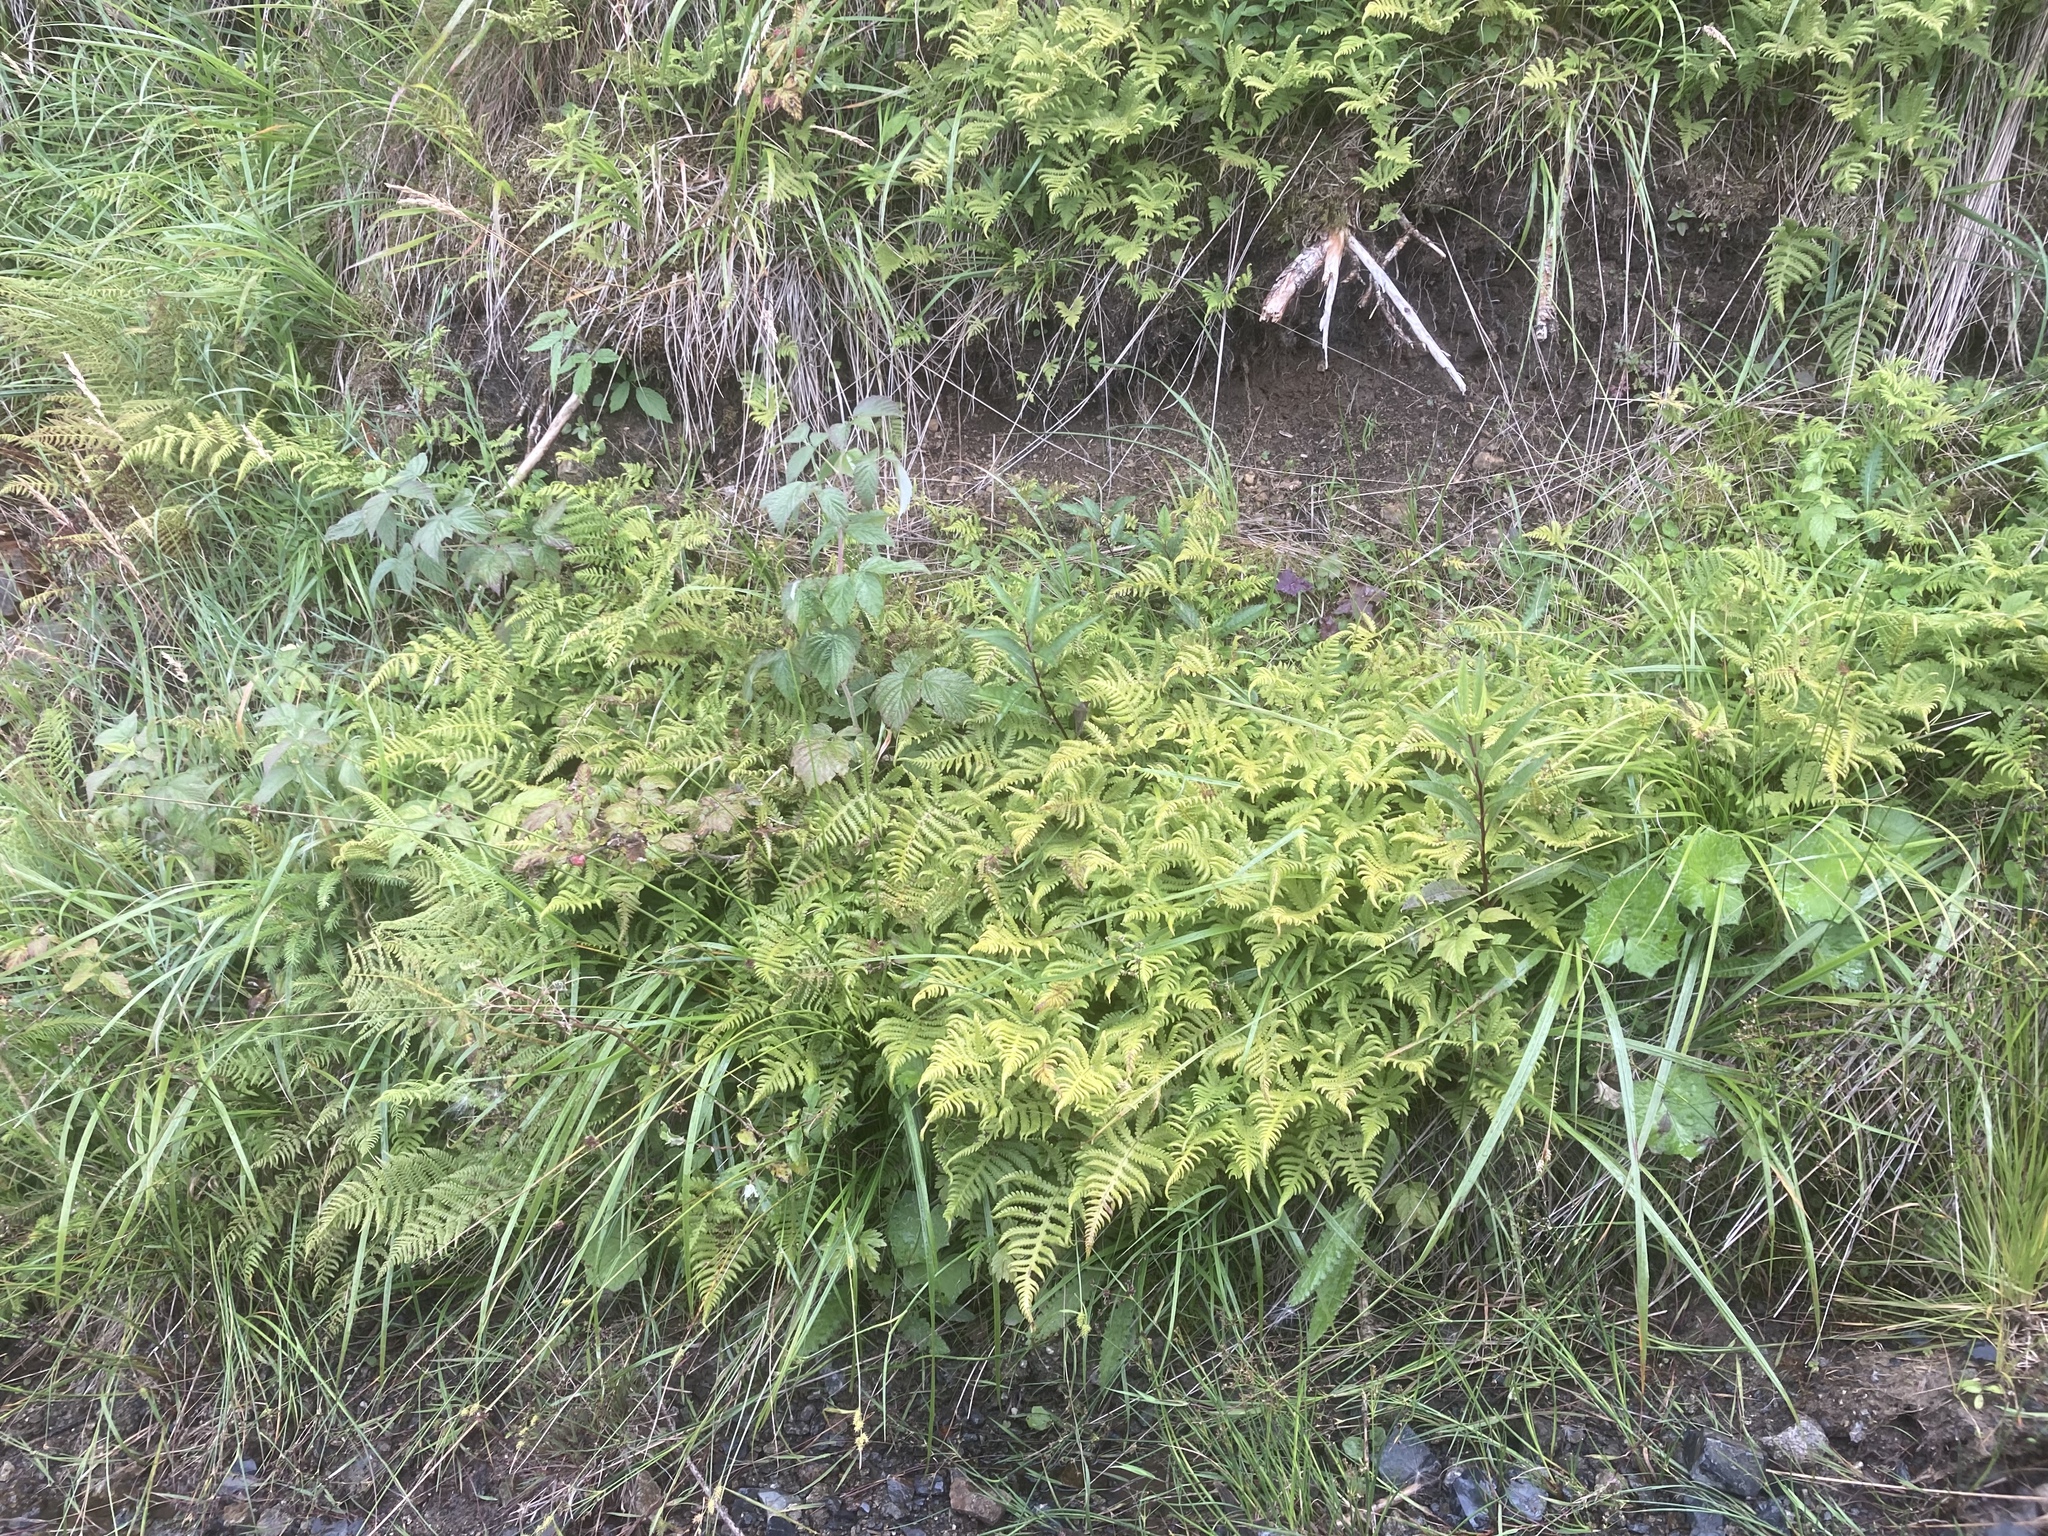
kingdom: Plantae
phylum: Tracheophyta
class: Polypodiopsida
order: Polypodiales
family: Thelypteridaceae
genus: Phegopteris
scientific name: Phegopteris connectilis
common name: Beech fern
